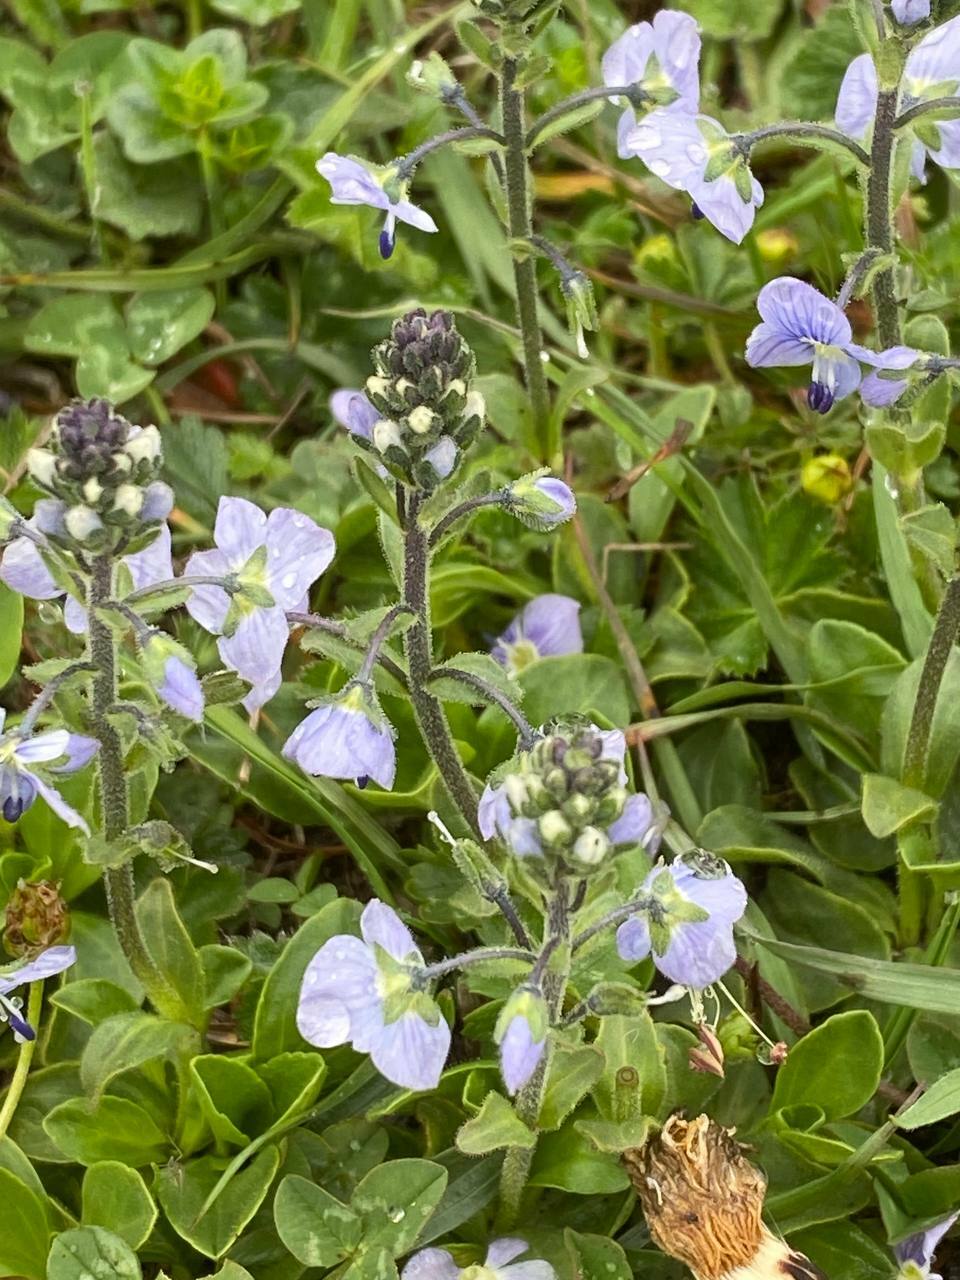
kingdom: Plantae
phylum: Tracheophyta
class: Magnoliopsida
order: Lamiales
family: Plantaginaceae
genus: Veronica
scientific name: Veronica gentianoides
